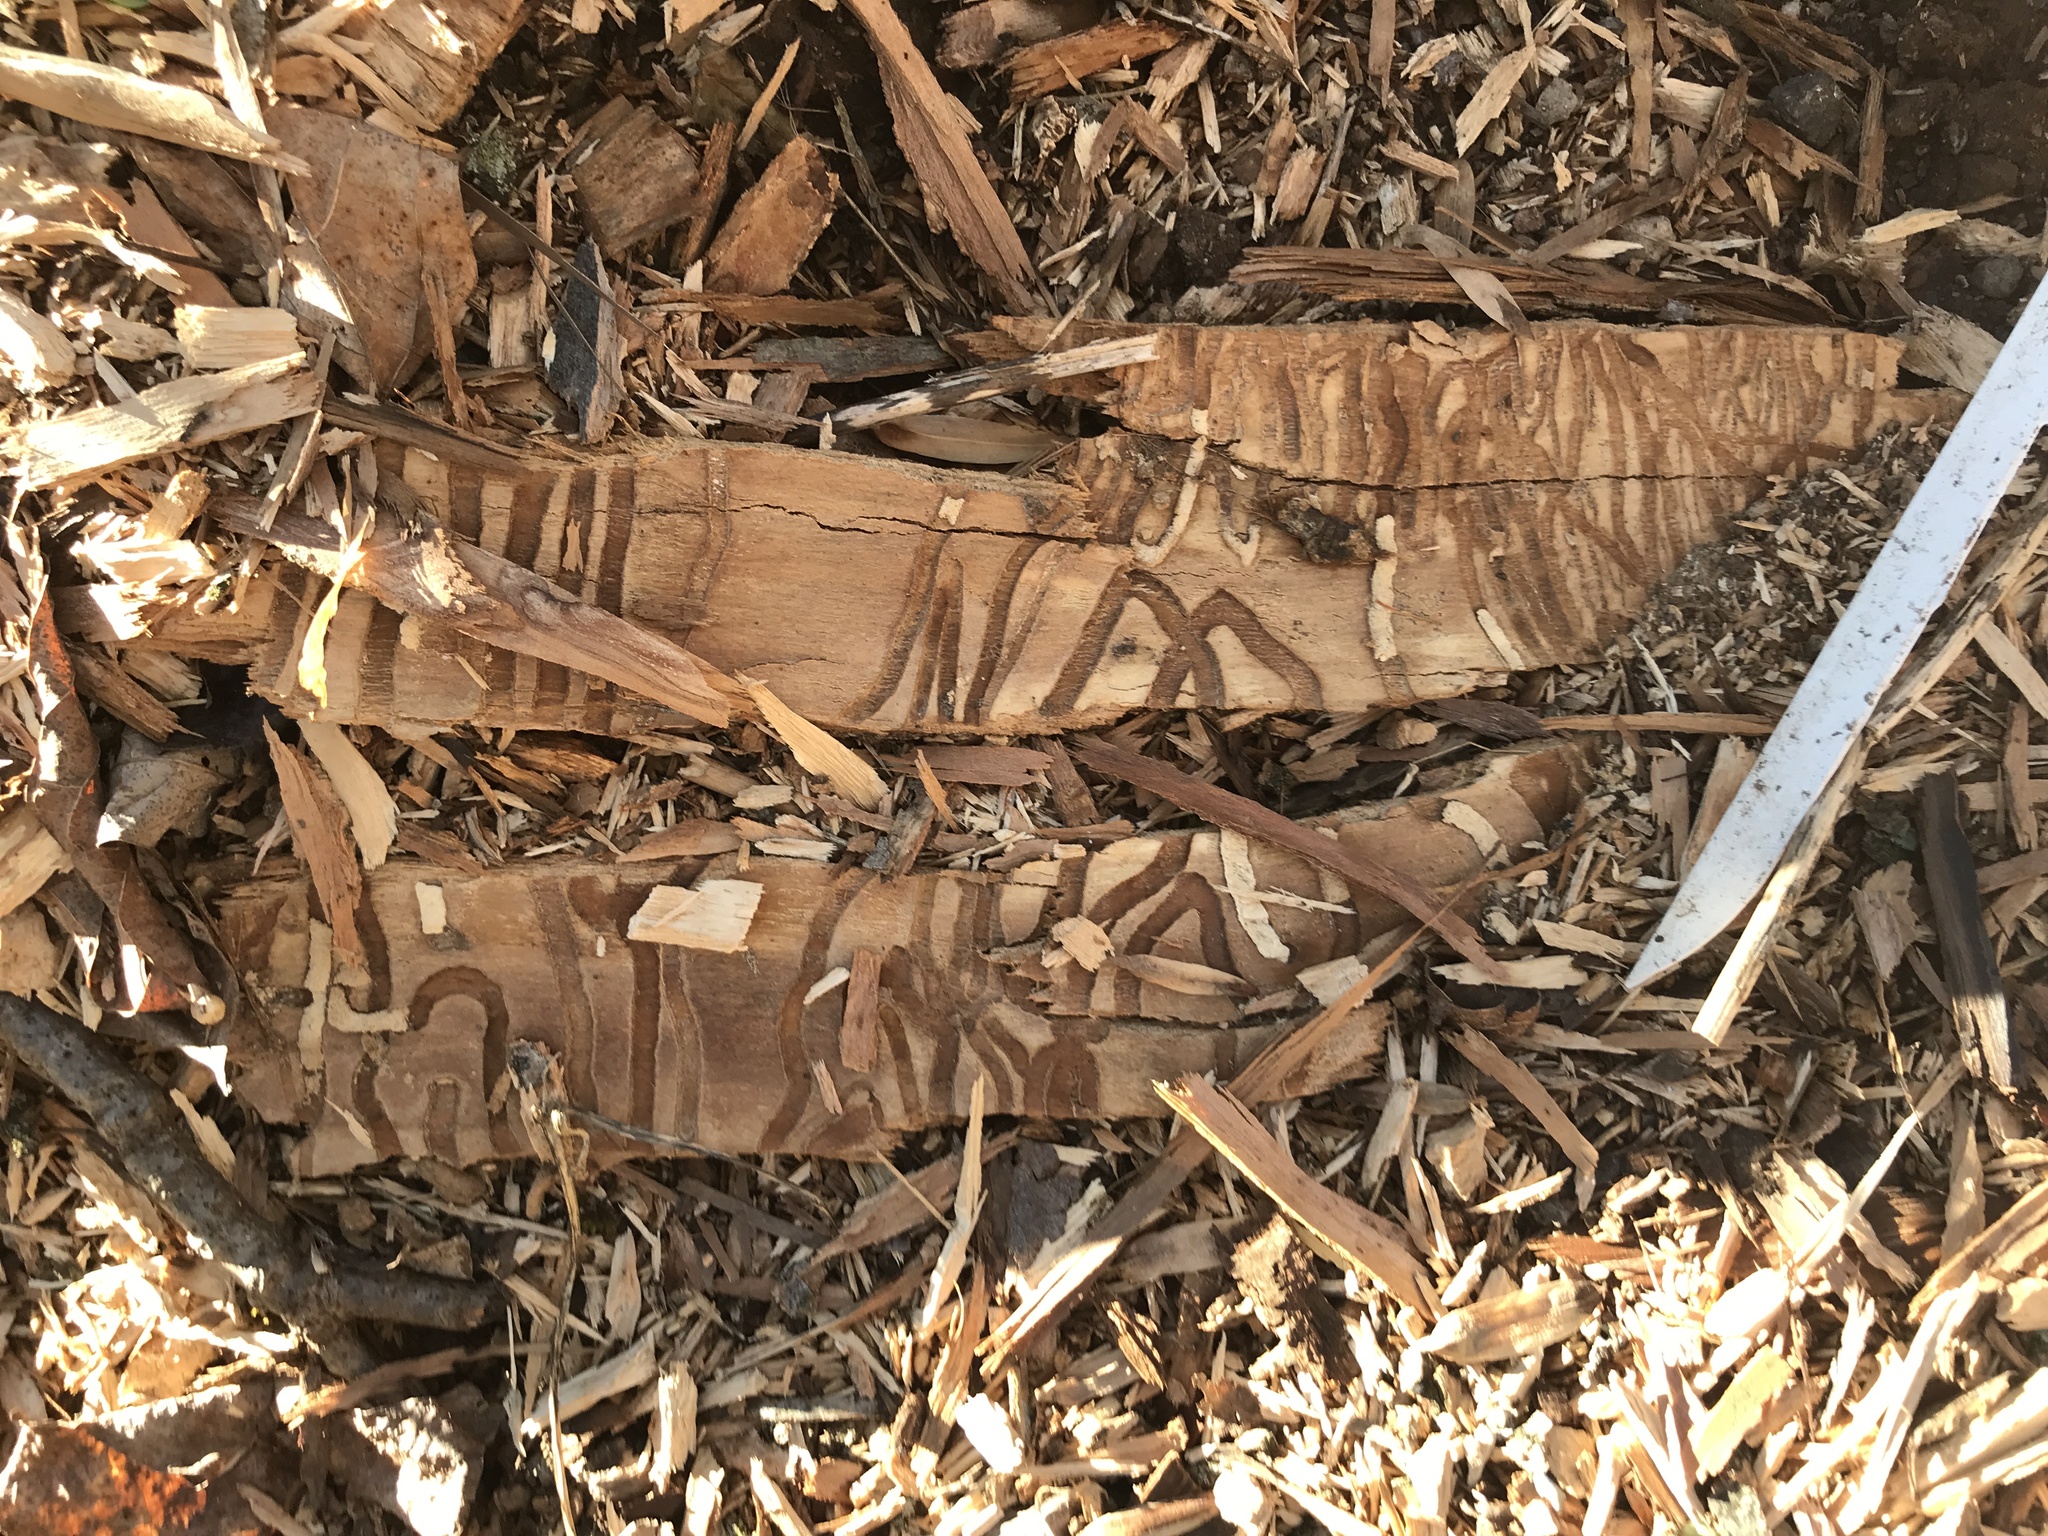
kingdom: Animalia
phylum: Arthropoda
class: Insecta
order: Coleoptera
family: Buprestidae
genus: Agrilus
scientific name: Agrilus planipennis
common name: Emerald ash borer
